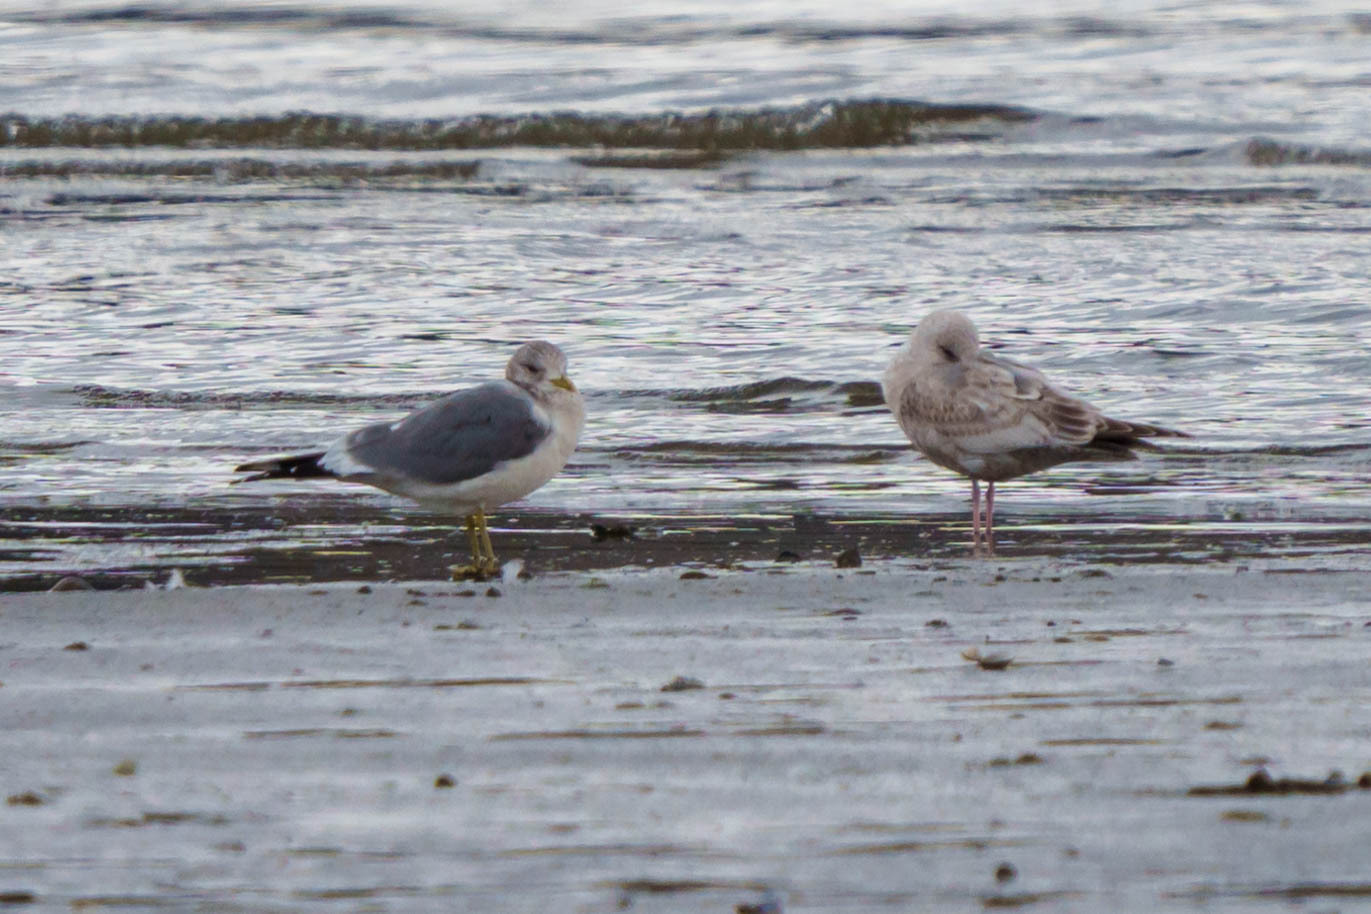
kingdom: Animalia
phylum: Chordata
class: Aves
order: Charadriiformes
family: Laridae
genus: Larus
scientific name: Larus brachyrhynchus
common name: Short-billed gull
